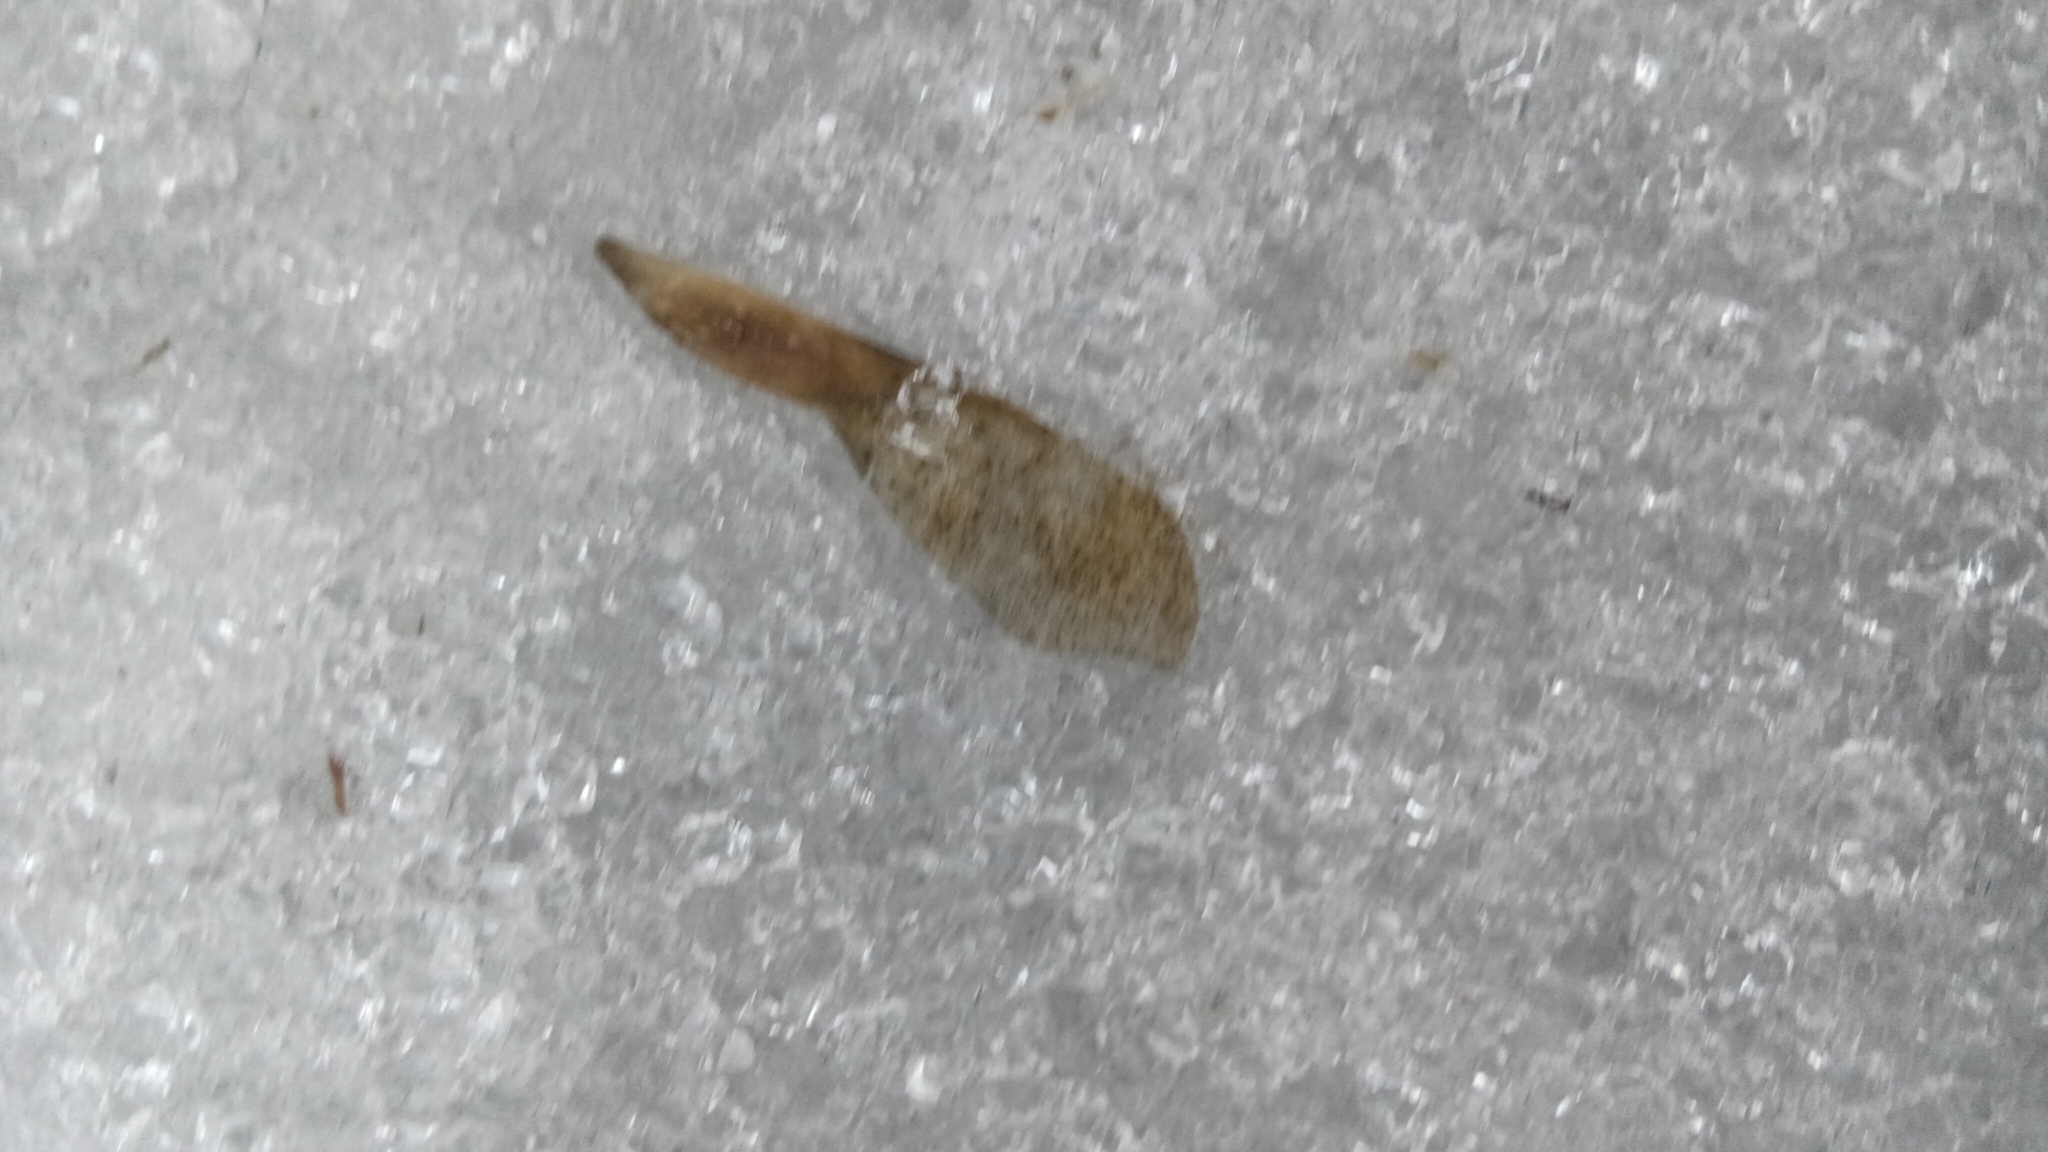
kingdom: Plantae
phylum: Tracheophyta
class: Magnoliopsida
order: Sapindales
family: Sapindaceae
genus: Acer
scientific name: Acer negundo
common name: Ashleaf maple
